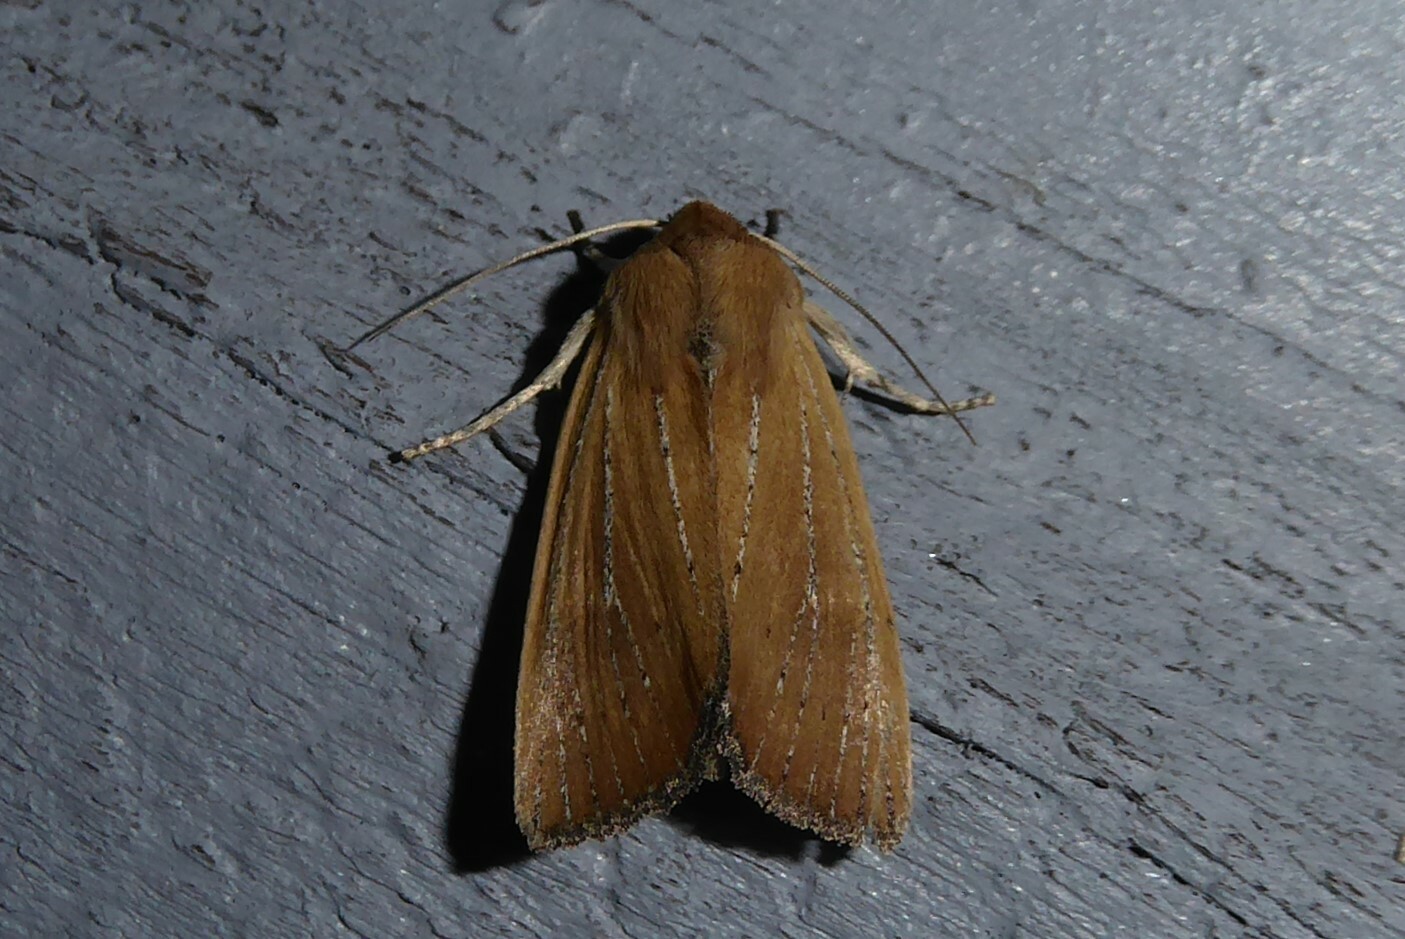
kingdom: Animalia
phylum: Arthropoda
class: Insecta
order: Lepidoptera
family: Noctuidae
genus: Ichneutica
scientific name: Ichneutica blenheimensis
